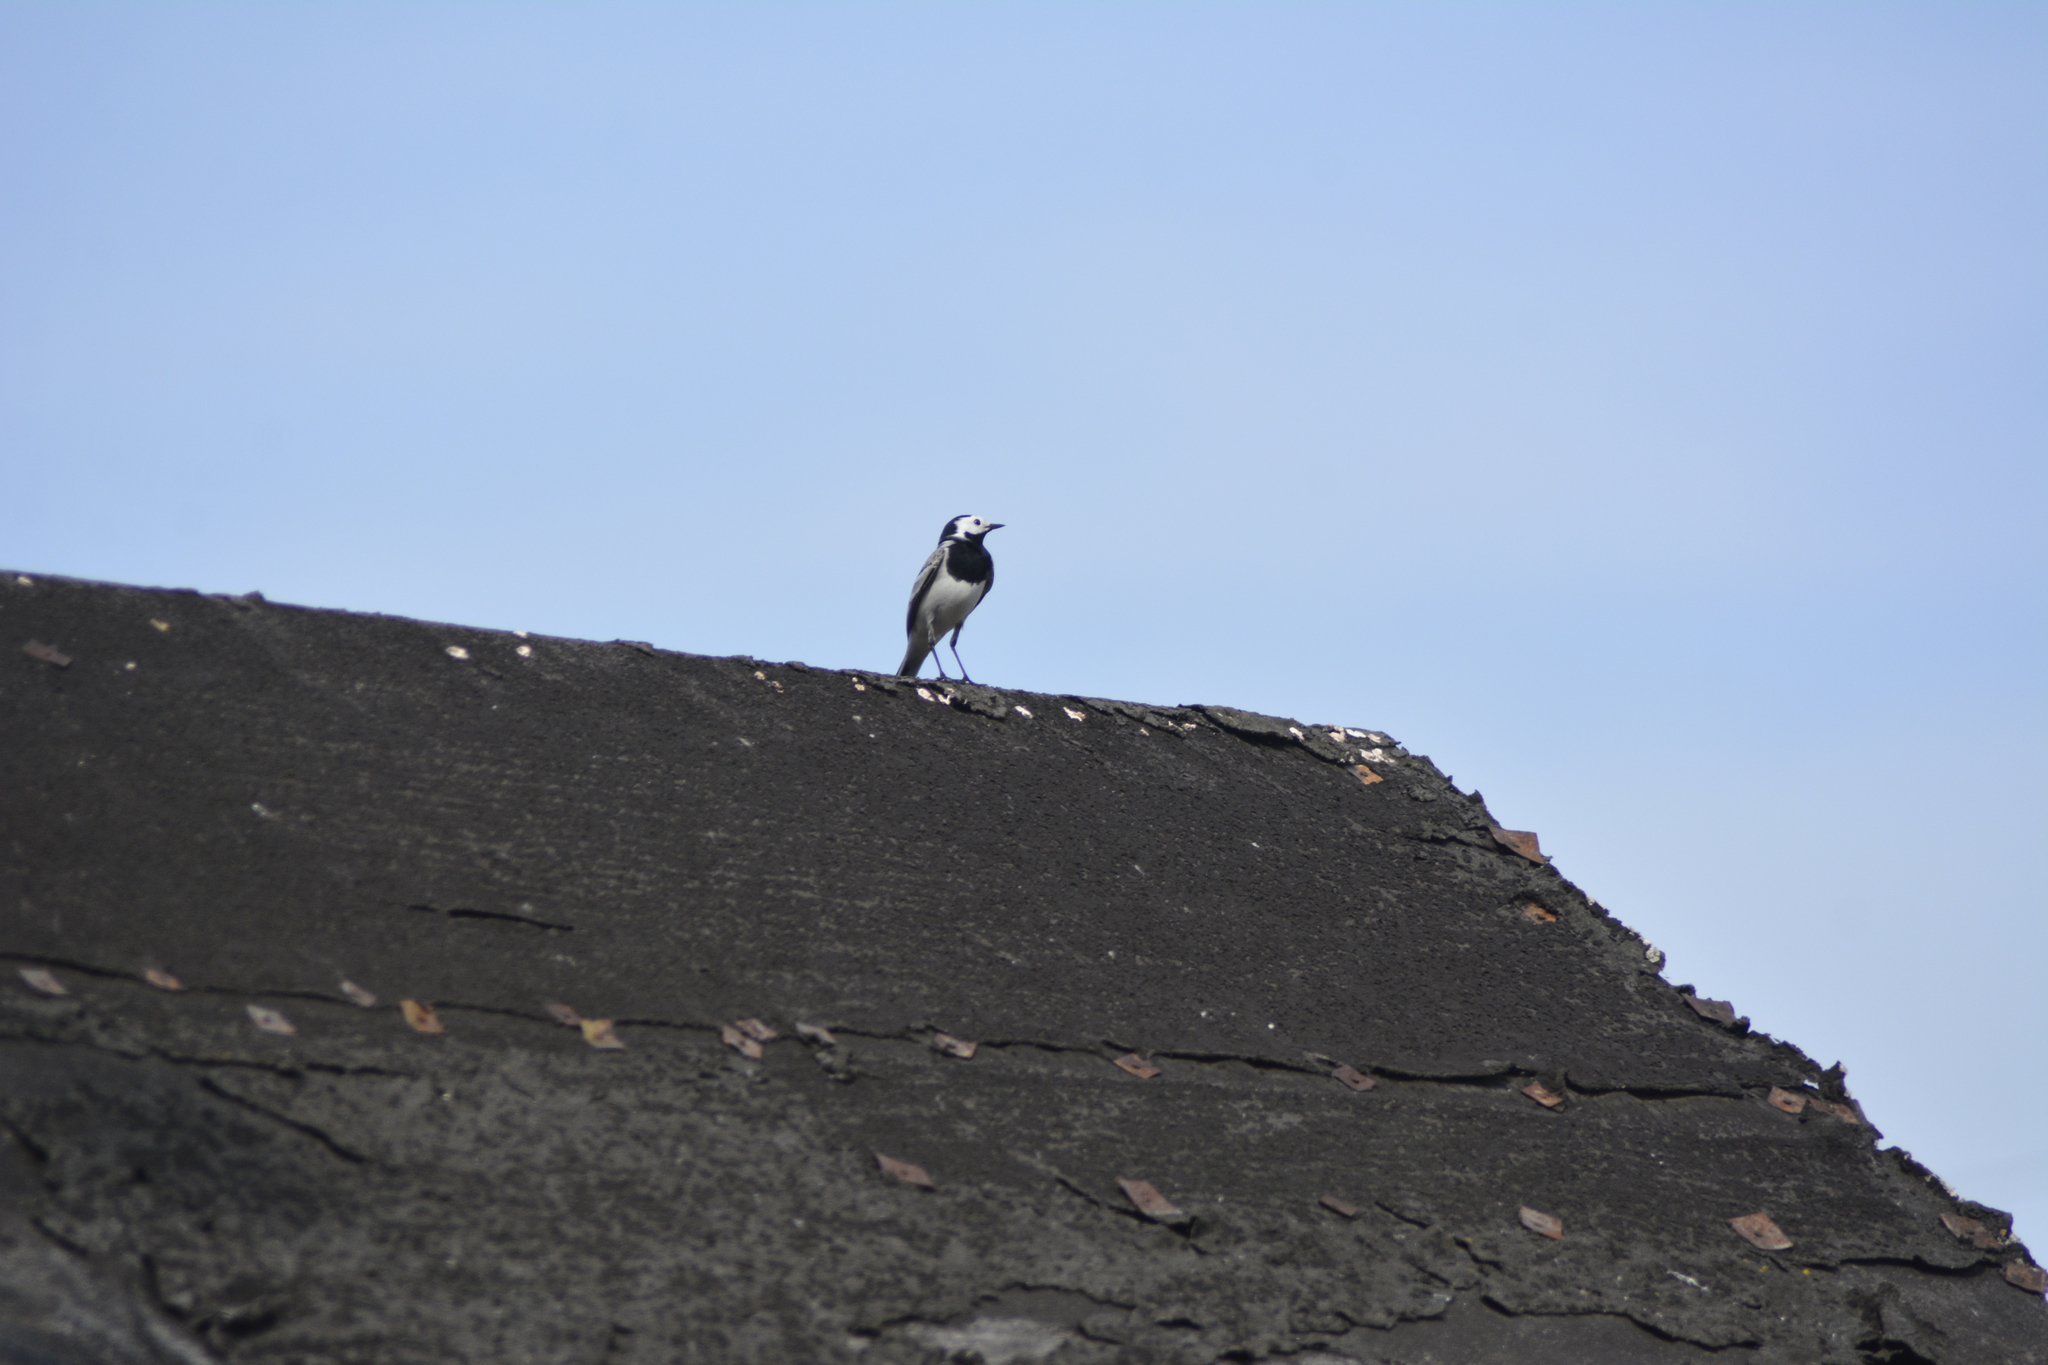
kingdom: Animalia
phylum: Chordata
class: Aves
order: Passeriformes
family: Motacillidae
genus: Motacilla
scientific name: Motacilla alba
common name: White wagtail
